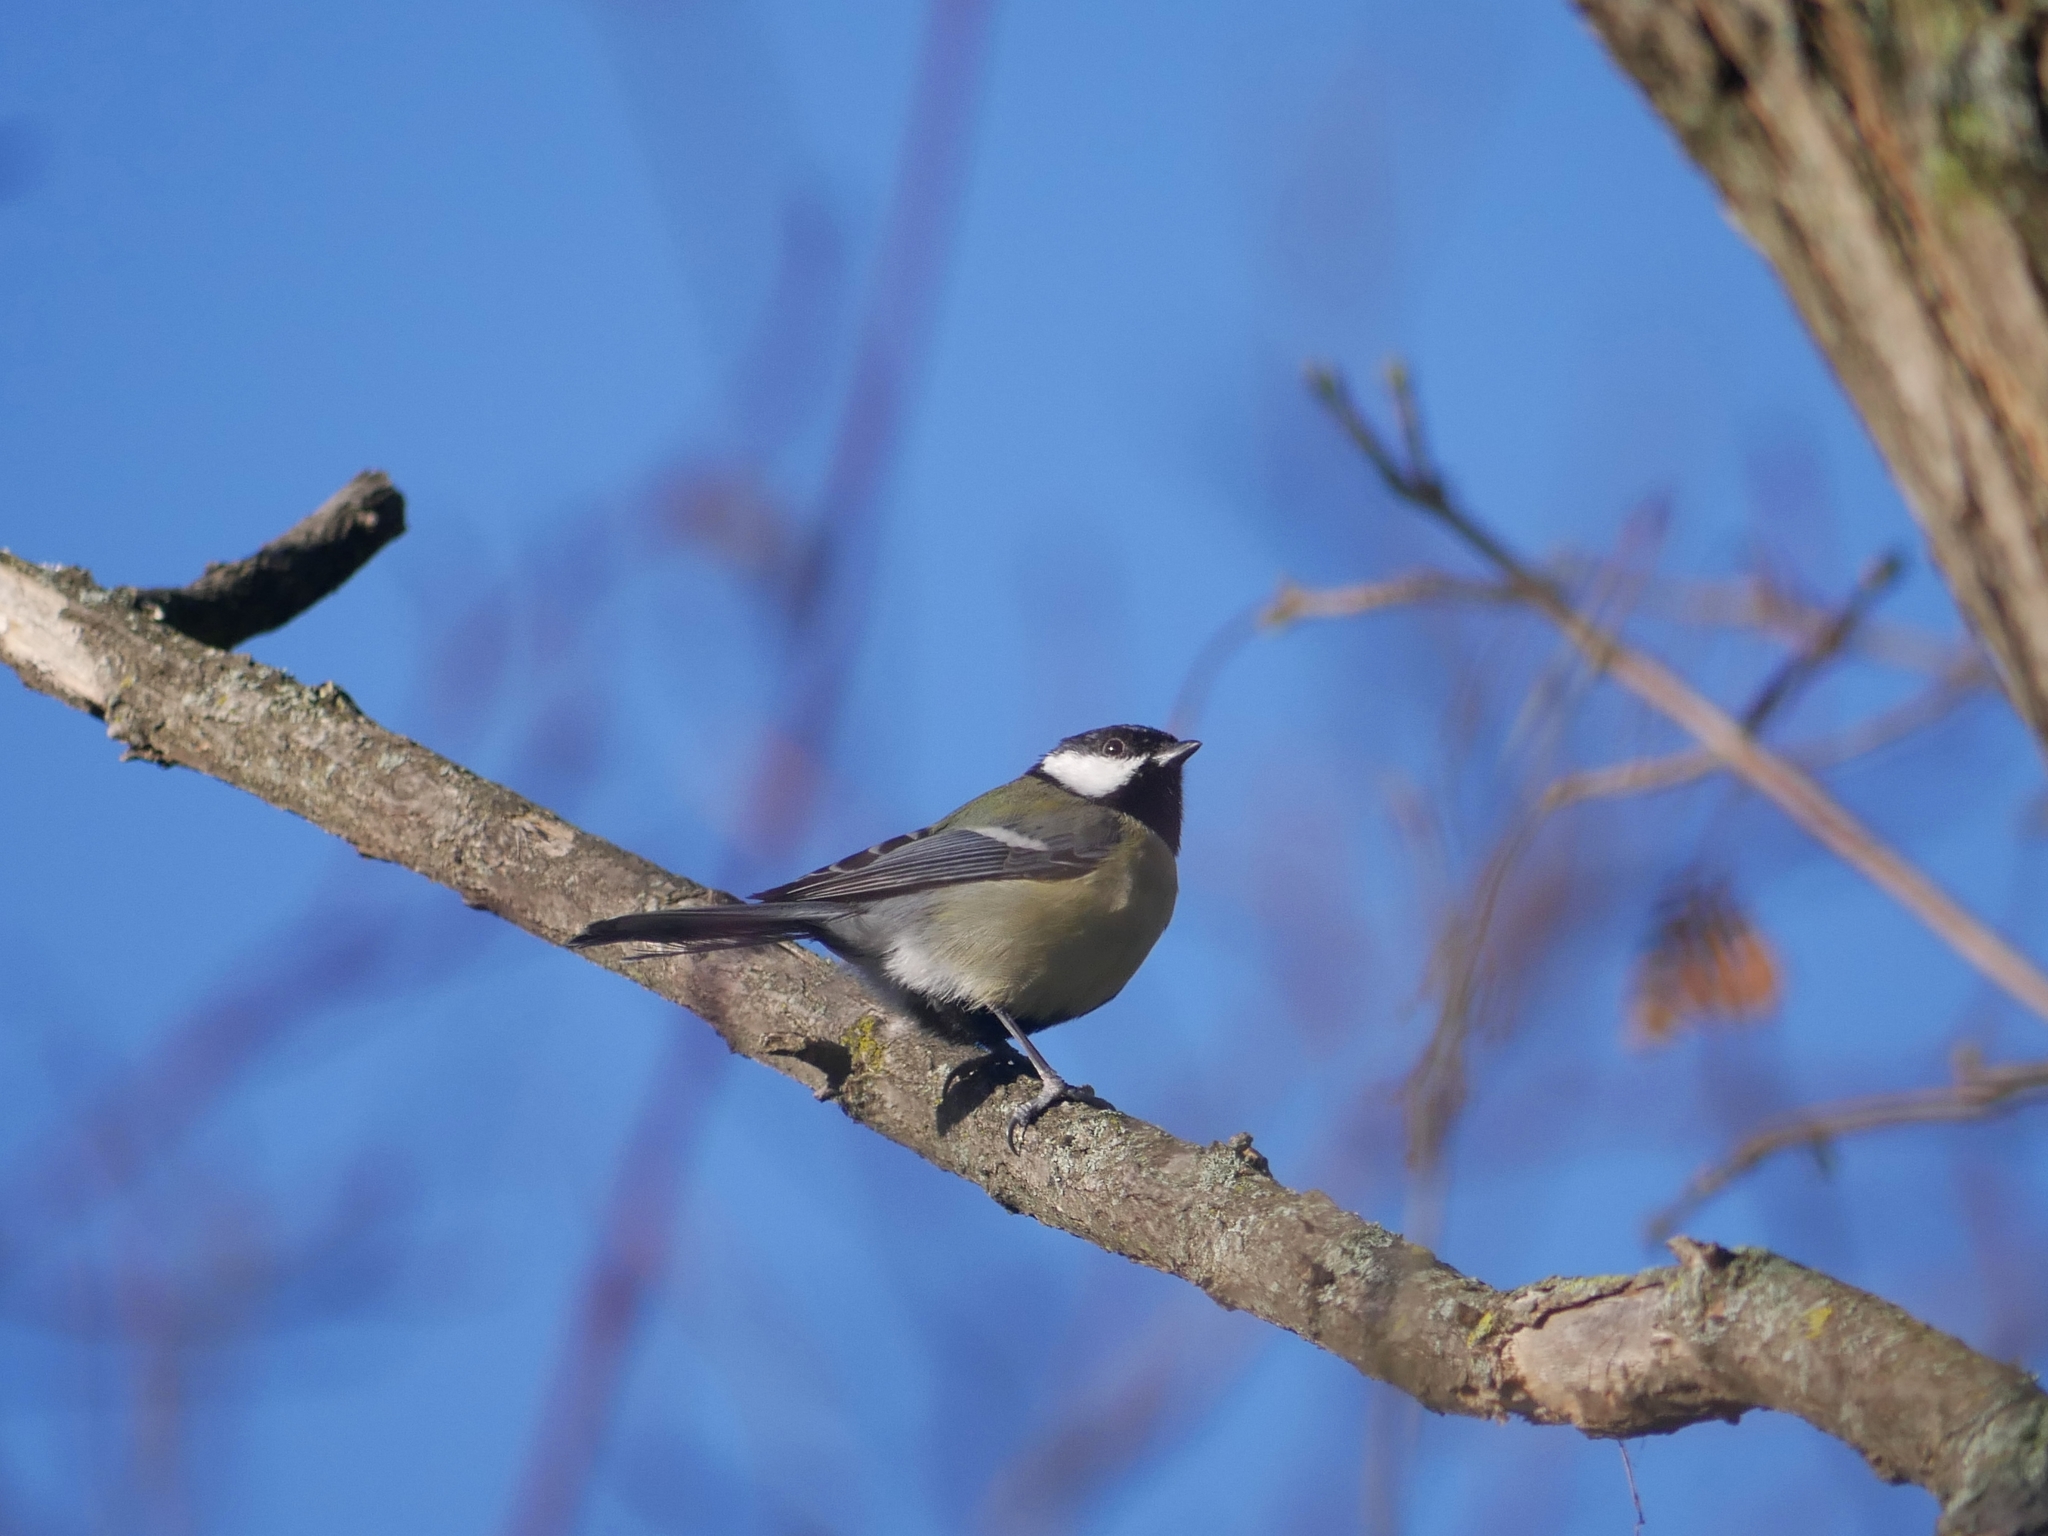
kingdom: Animalia
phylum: Chordata
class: Aves
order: Passeriformes
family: Paridae
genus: Parus
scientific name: Parus major
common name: Great tit
